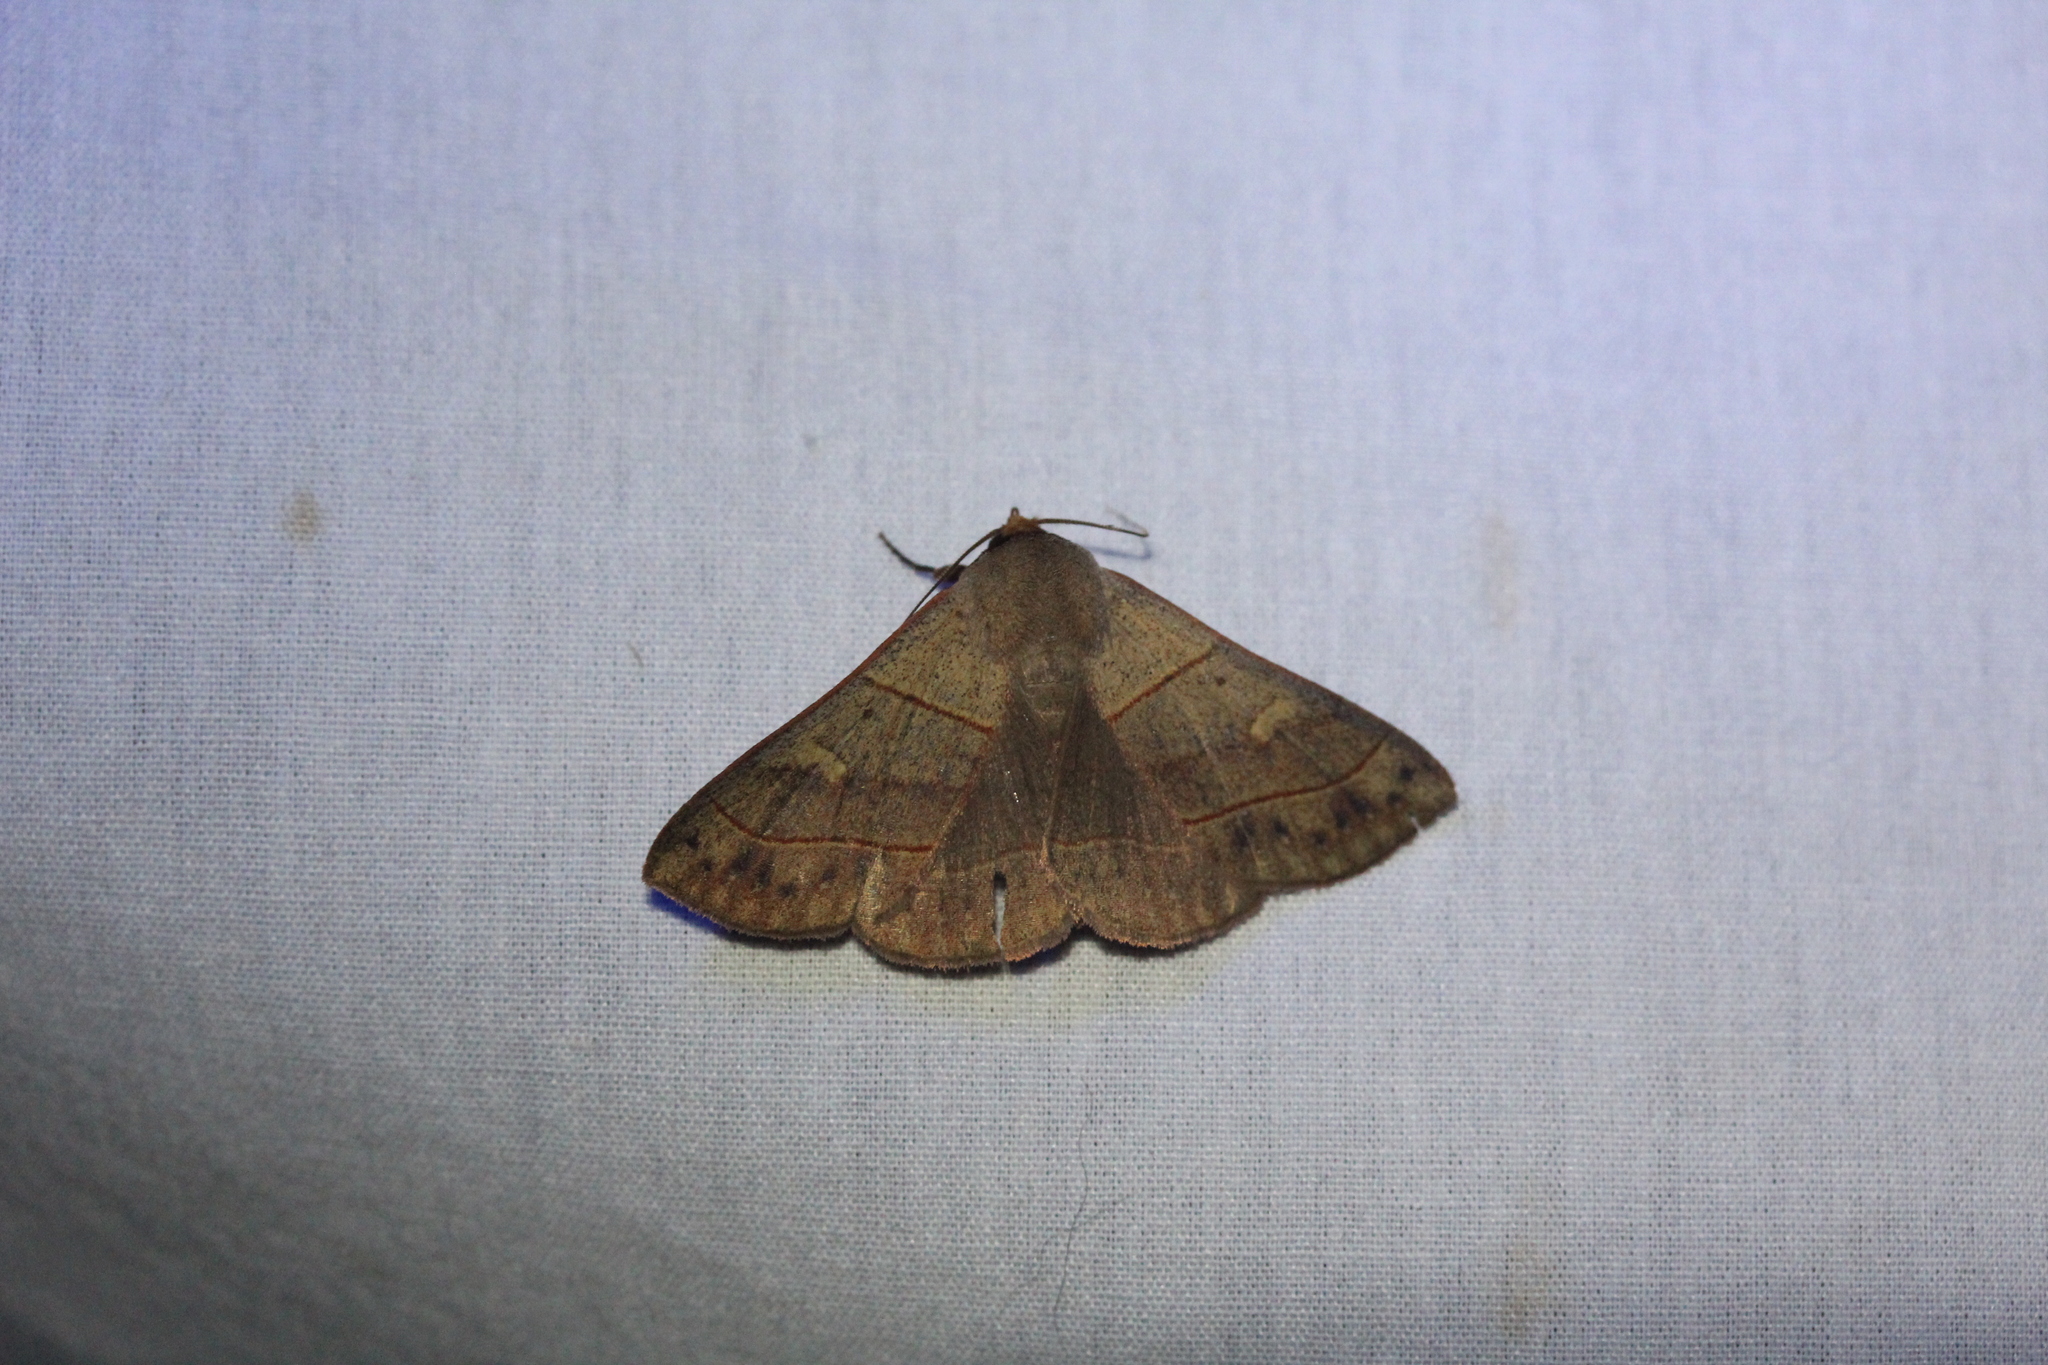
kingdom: Animalia
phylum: Arthropoda
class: Insecta
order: Lepidoptera
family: Erebidae
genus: Panopoda
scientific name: Panopoda rufimargo
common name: Red-lined panopoda moth
